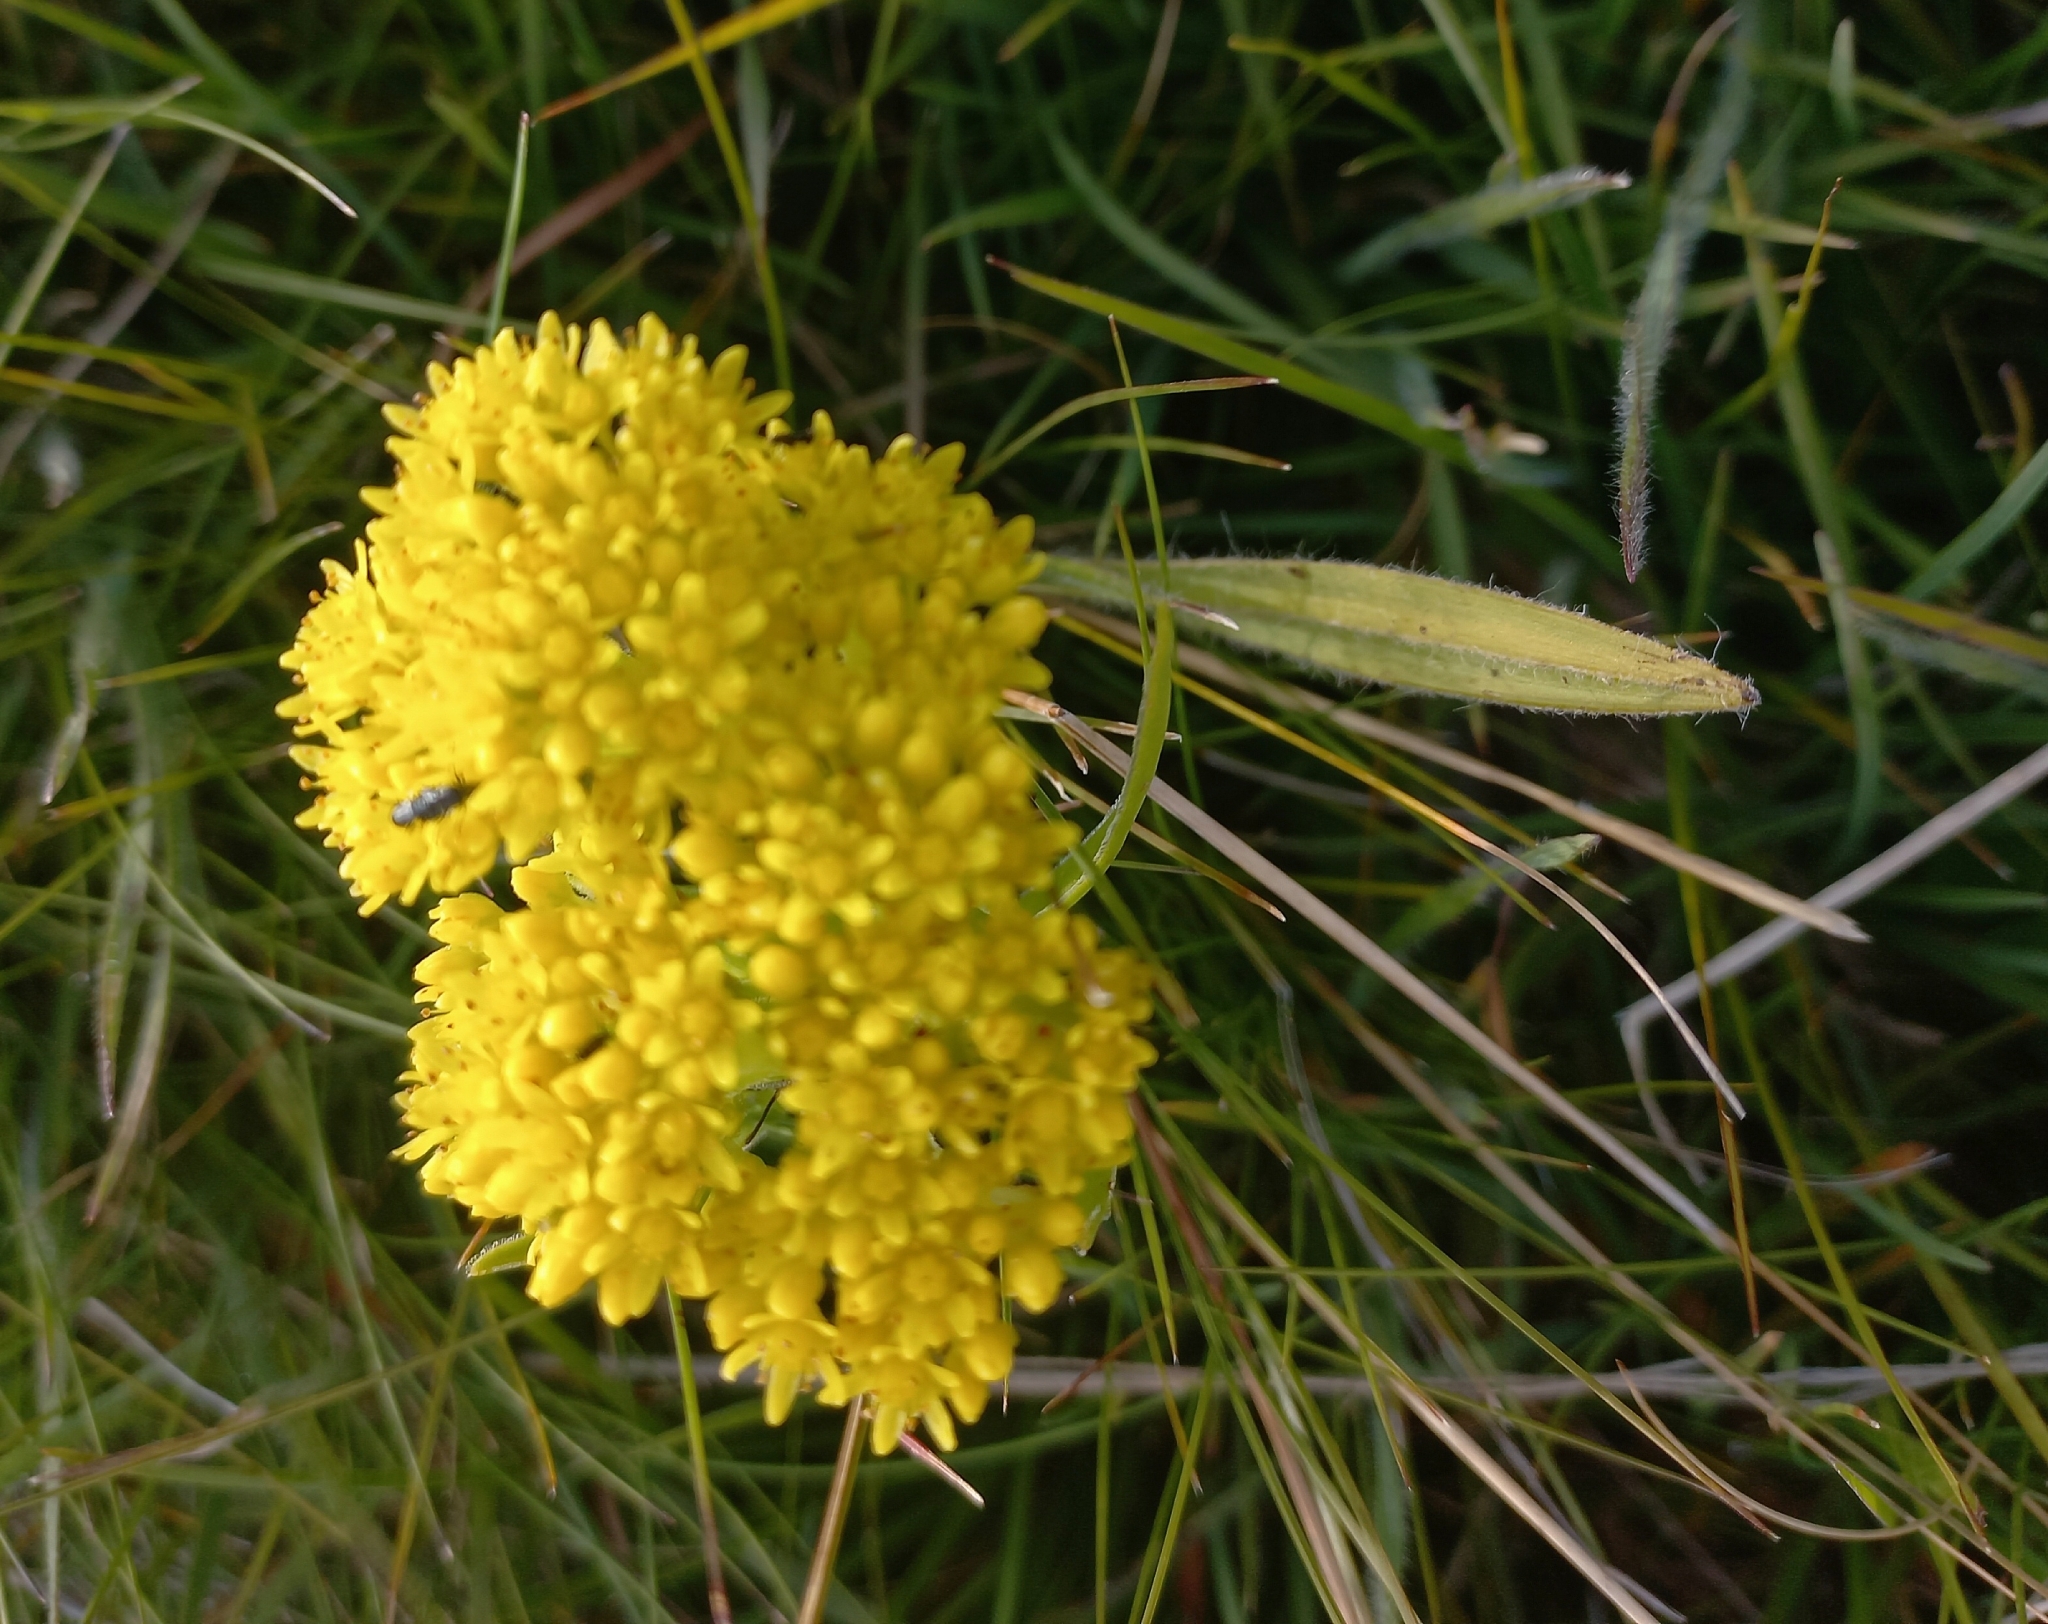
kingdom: Plantae
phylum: Tracheophyta
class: Magnoliopsida
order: Saxifragales
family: Crassulaceae
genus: Crassula
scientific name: Crassula vaginata
